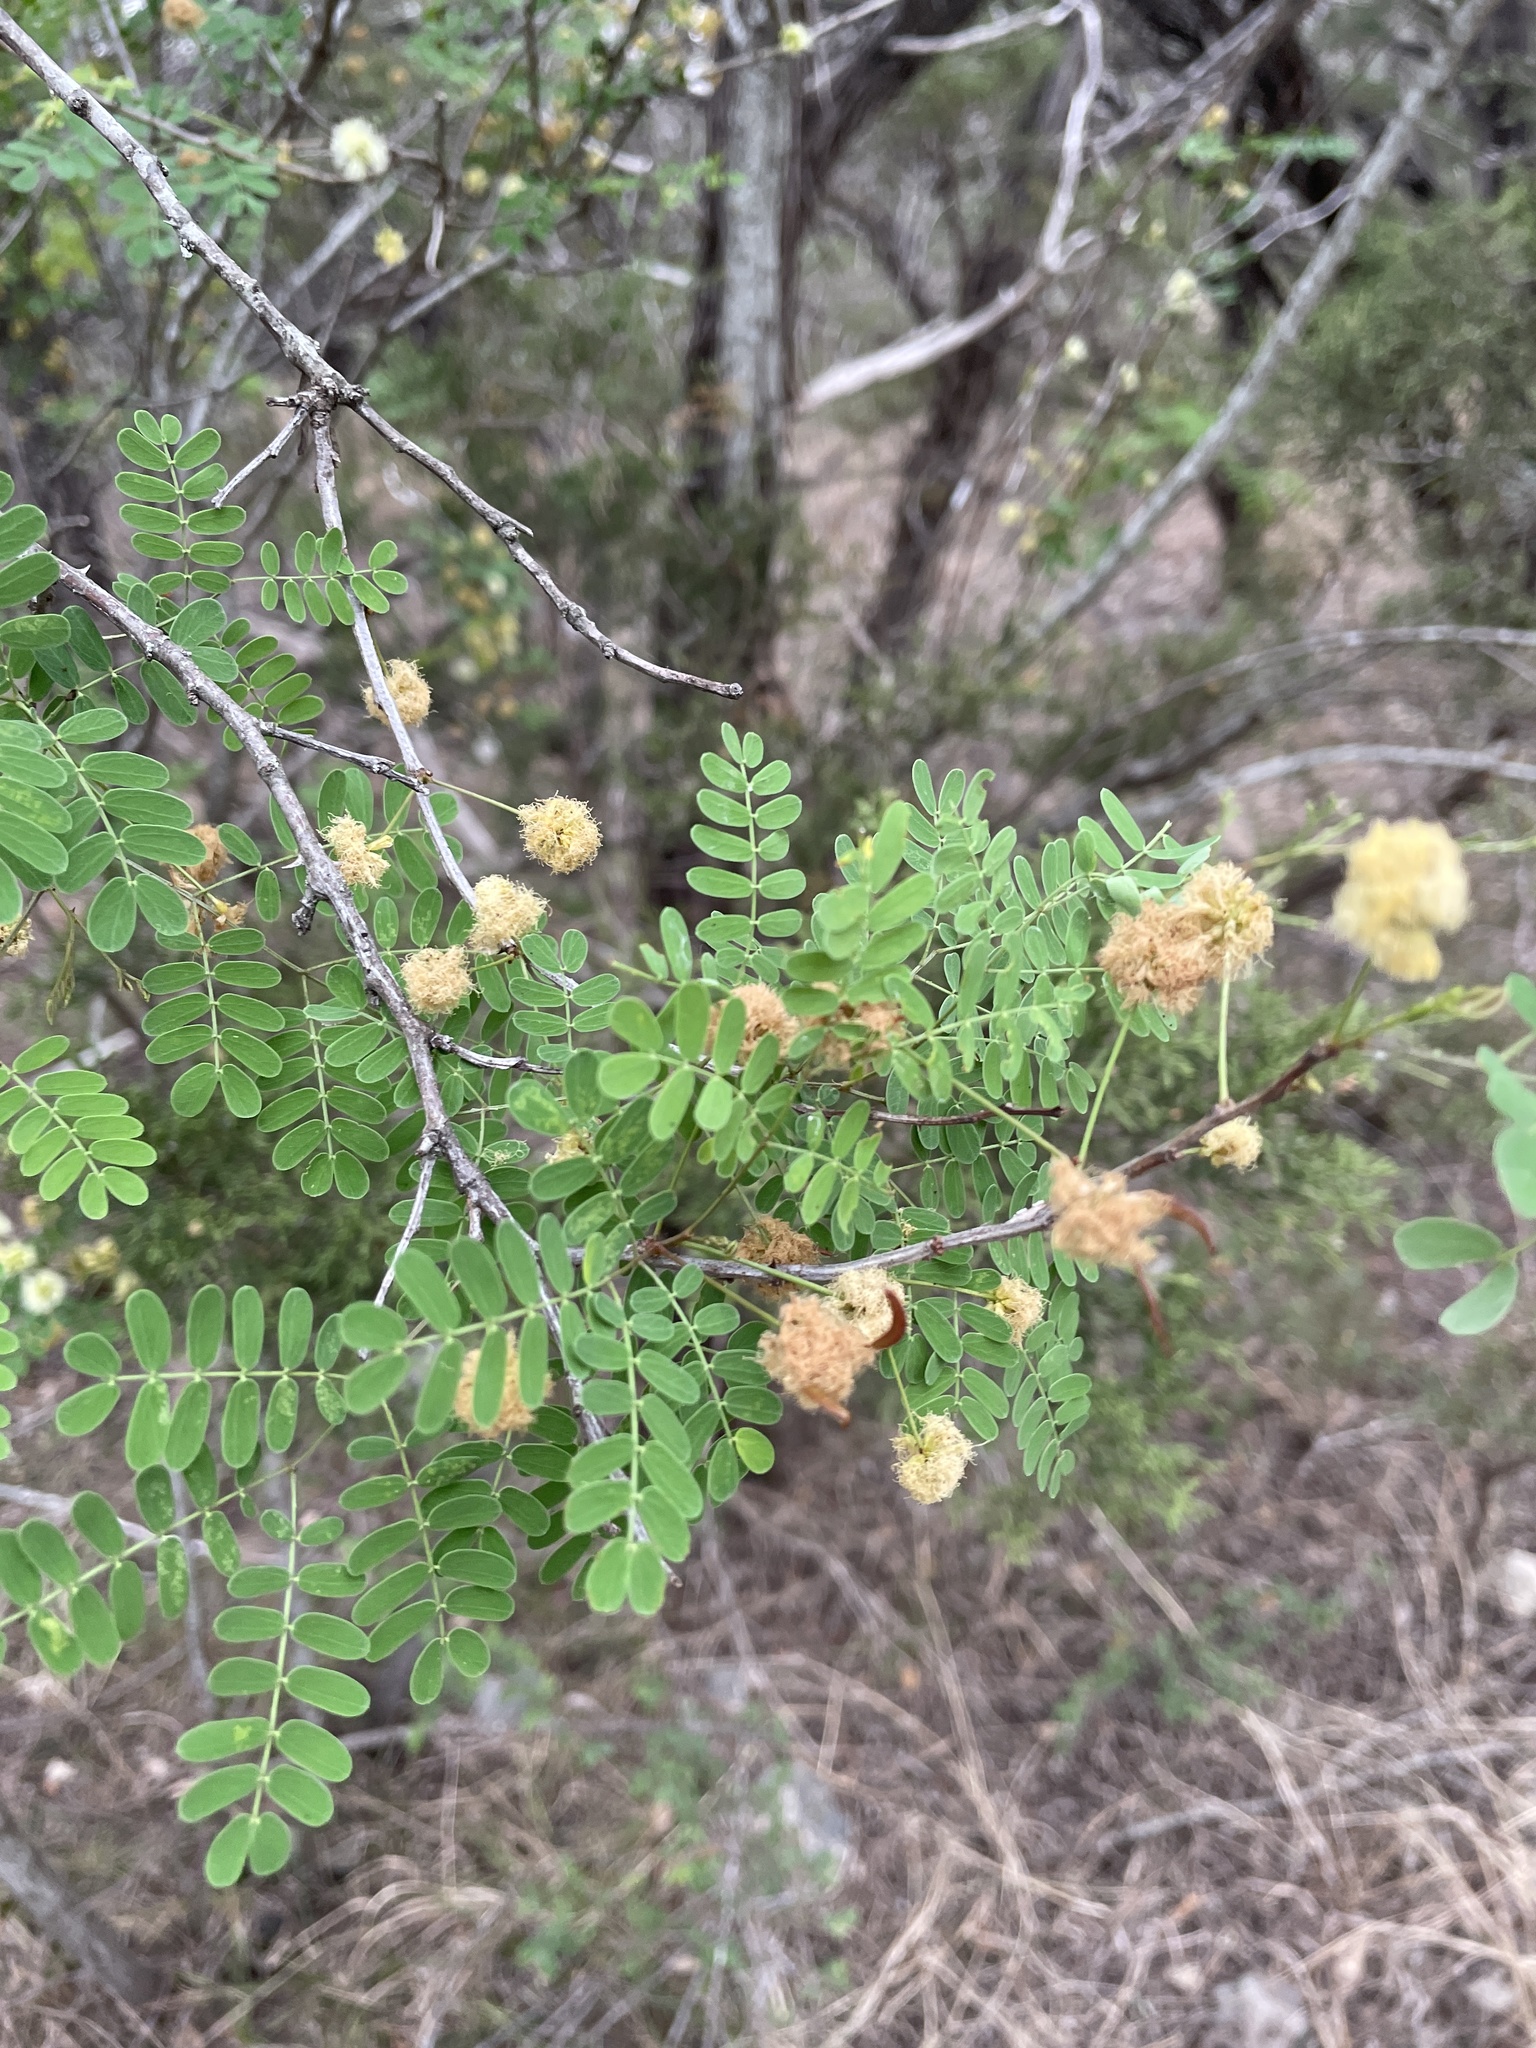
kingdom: Plantae
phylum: Tracheophyta
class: Magnoliopsida
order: Fabales
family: Fabaceae
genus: Senegalia
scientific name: Senegalia roemeriana
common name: Roemer's acacia
